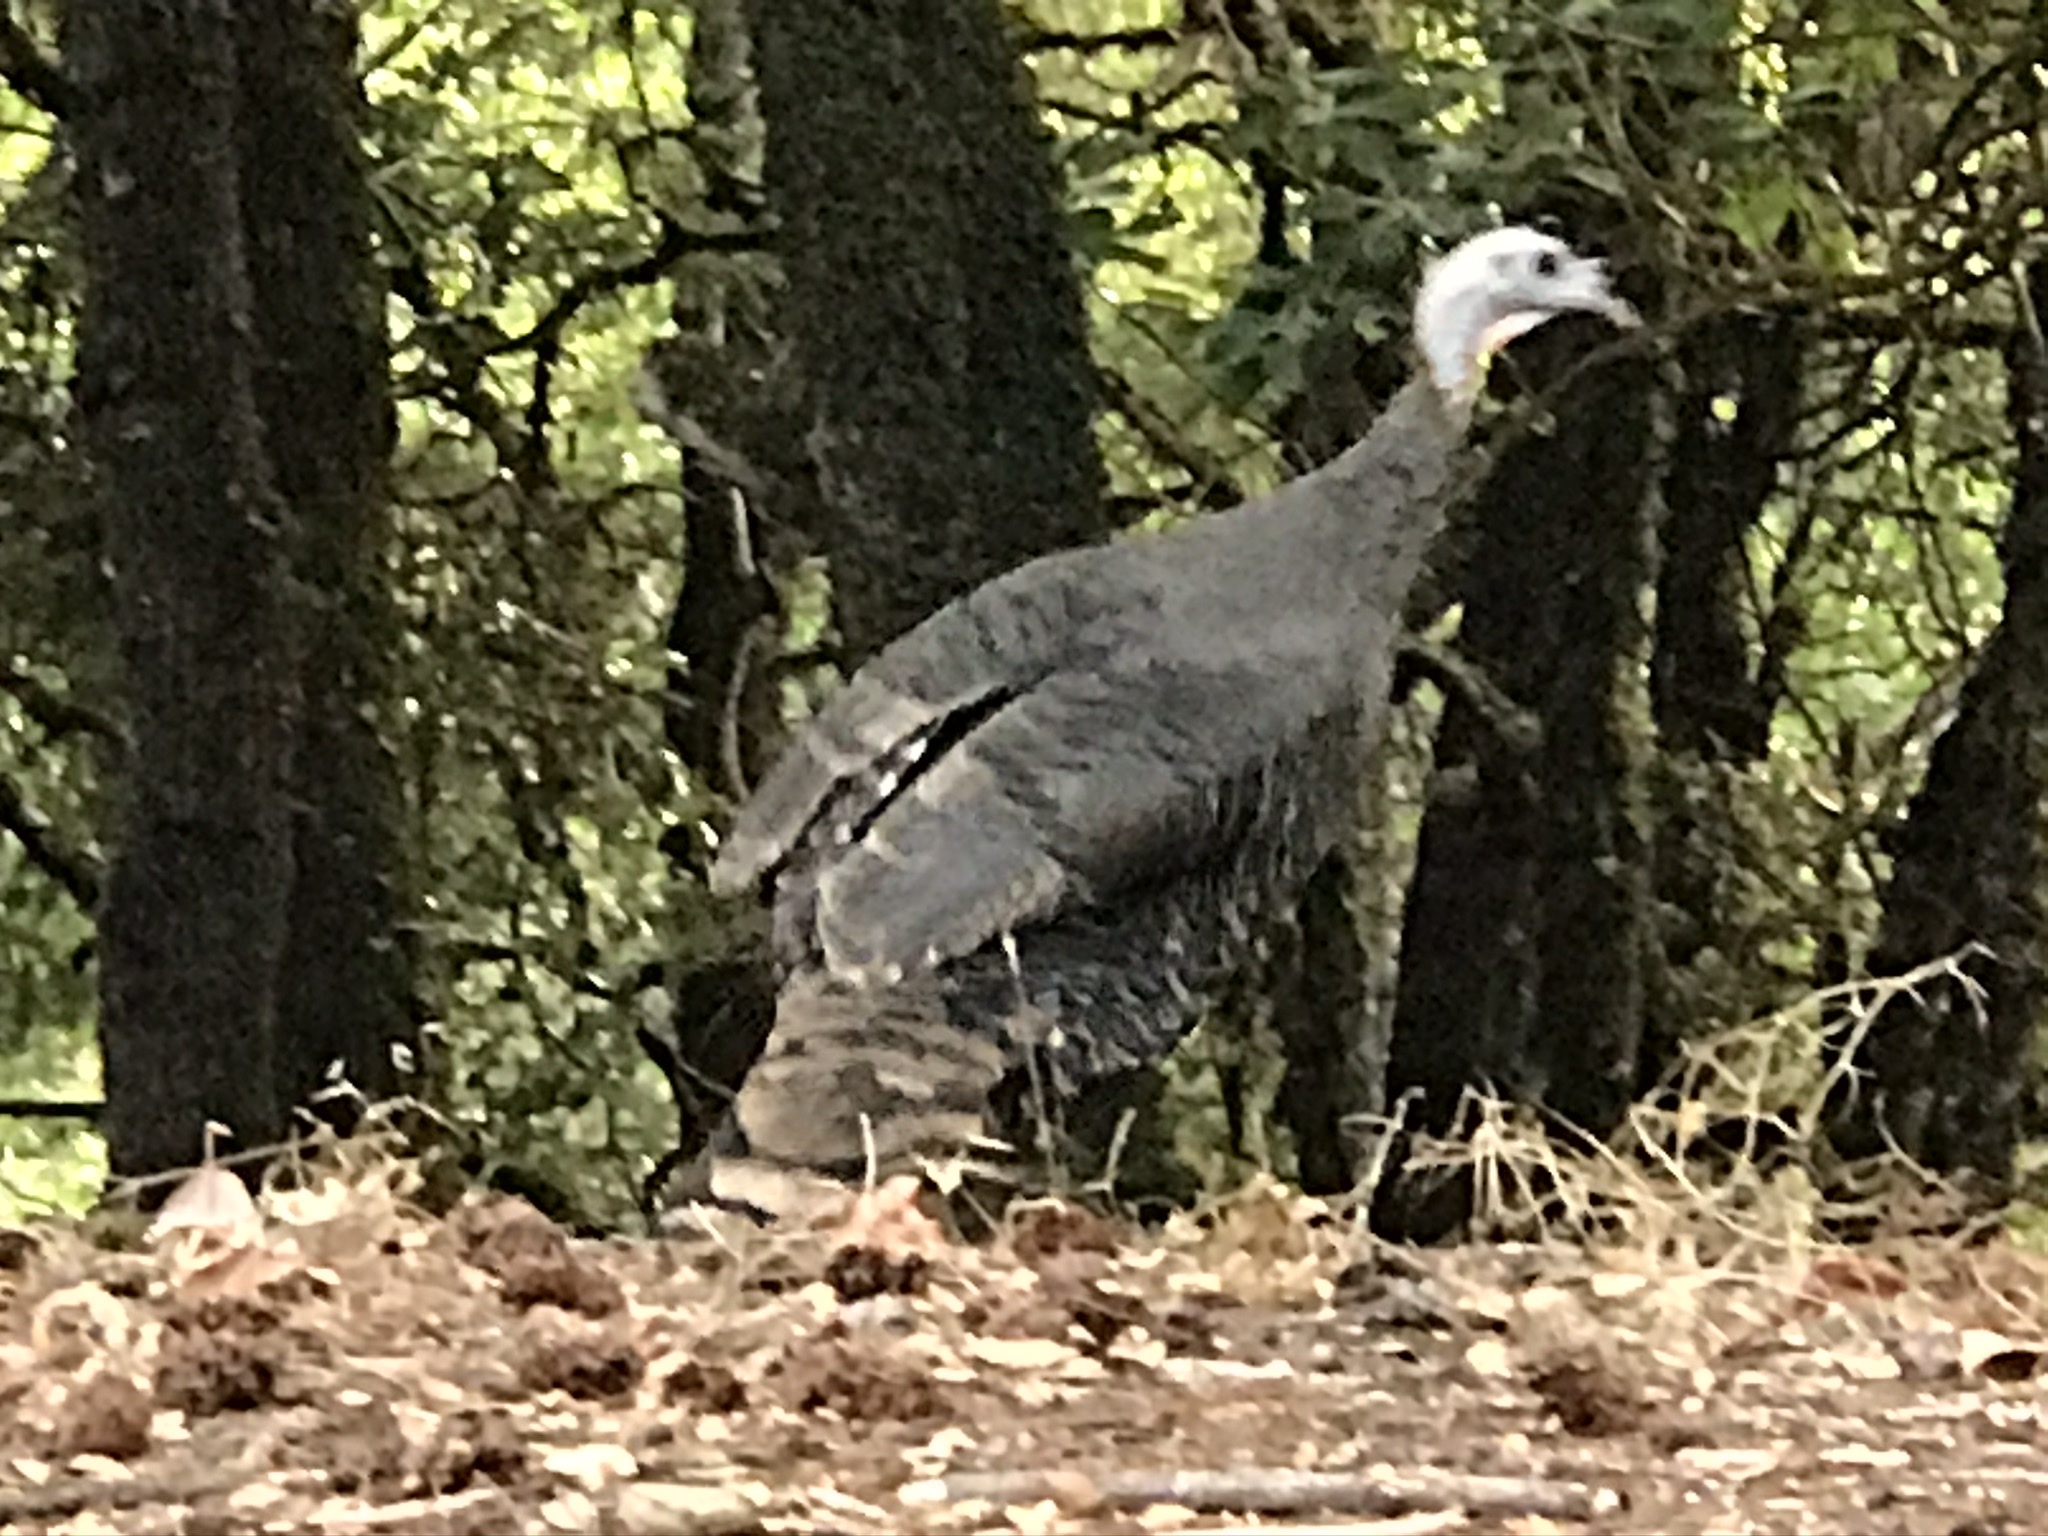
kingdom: Animalia
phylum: Chordata
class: Aves
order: Galliformes
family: Phasianidae
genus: Meleagris
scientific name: Meleagris gallopavo
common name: Wild turkey
